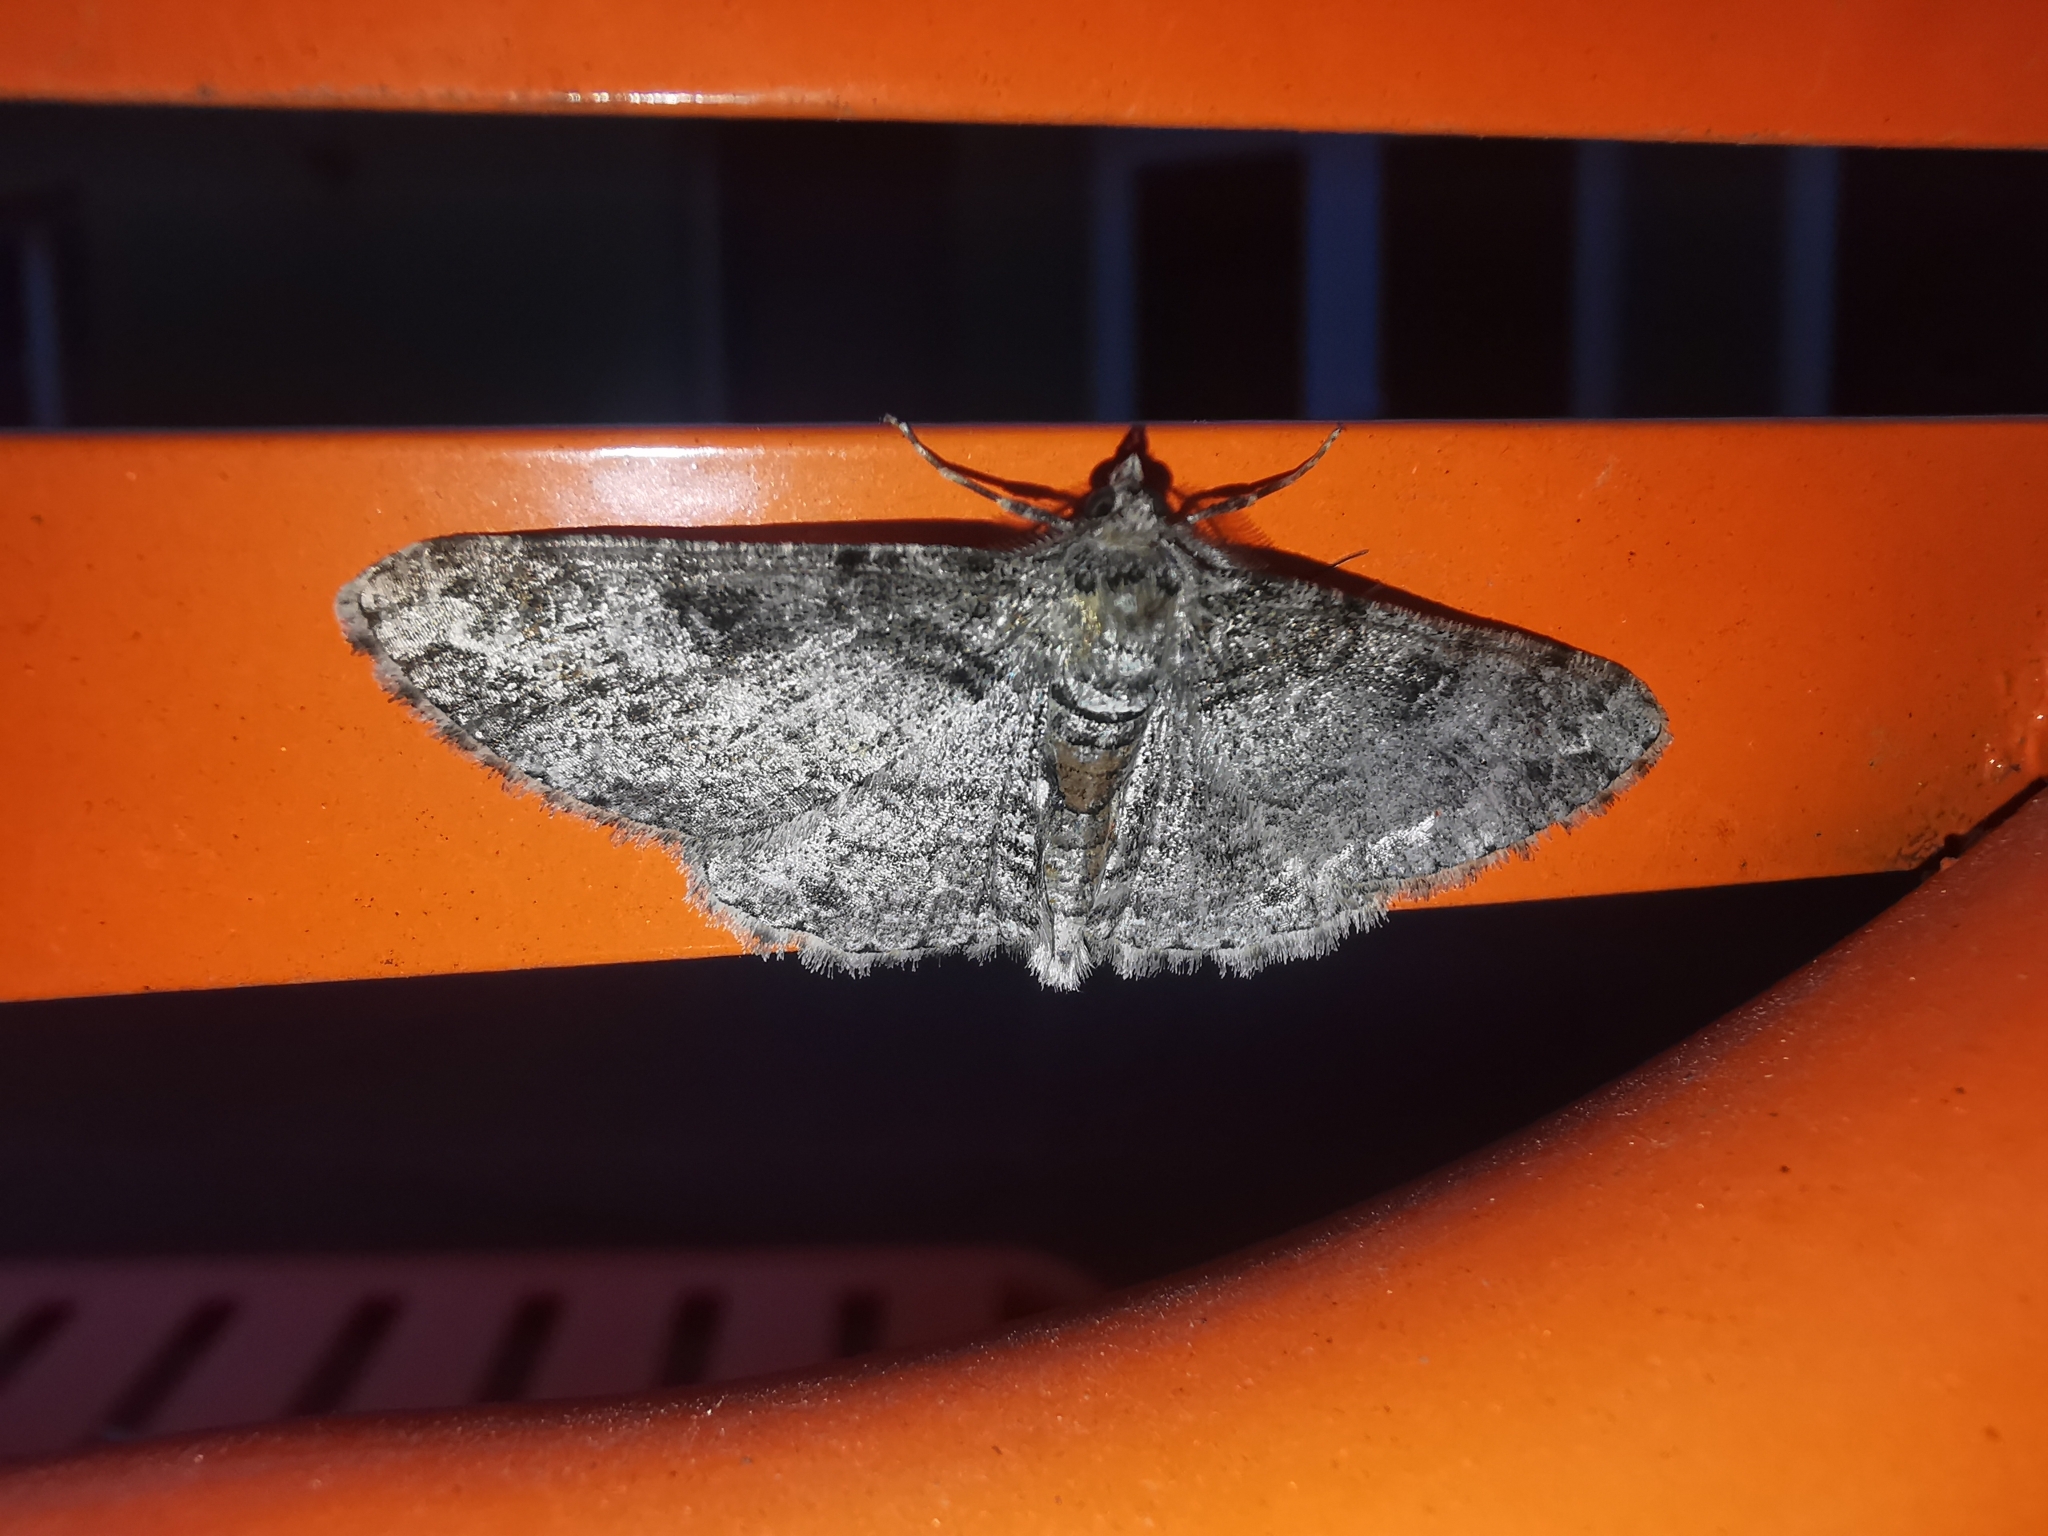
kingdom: Animalia
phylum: Arthropoda
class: Insecta
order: Lepidoptera
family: Geometridae
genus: Cleora
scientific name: Cleora cinctaria
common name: Ringed carpet
